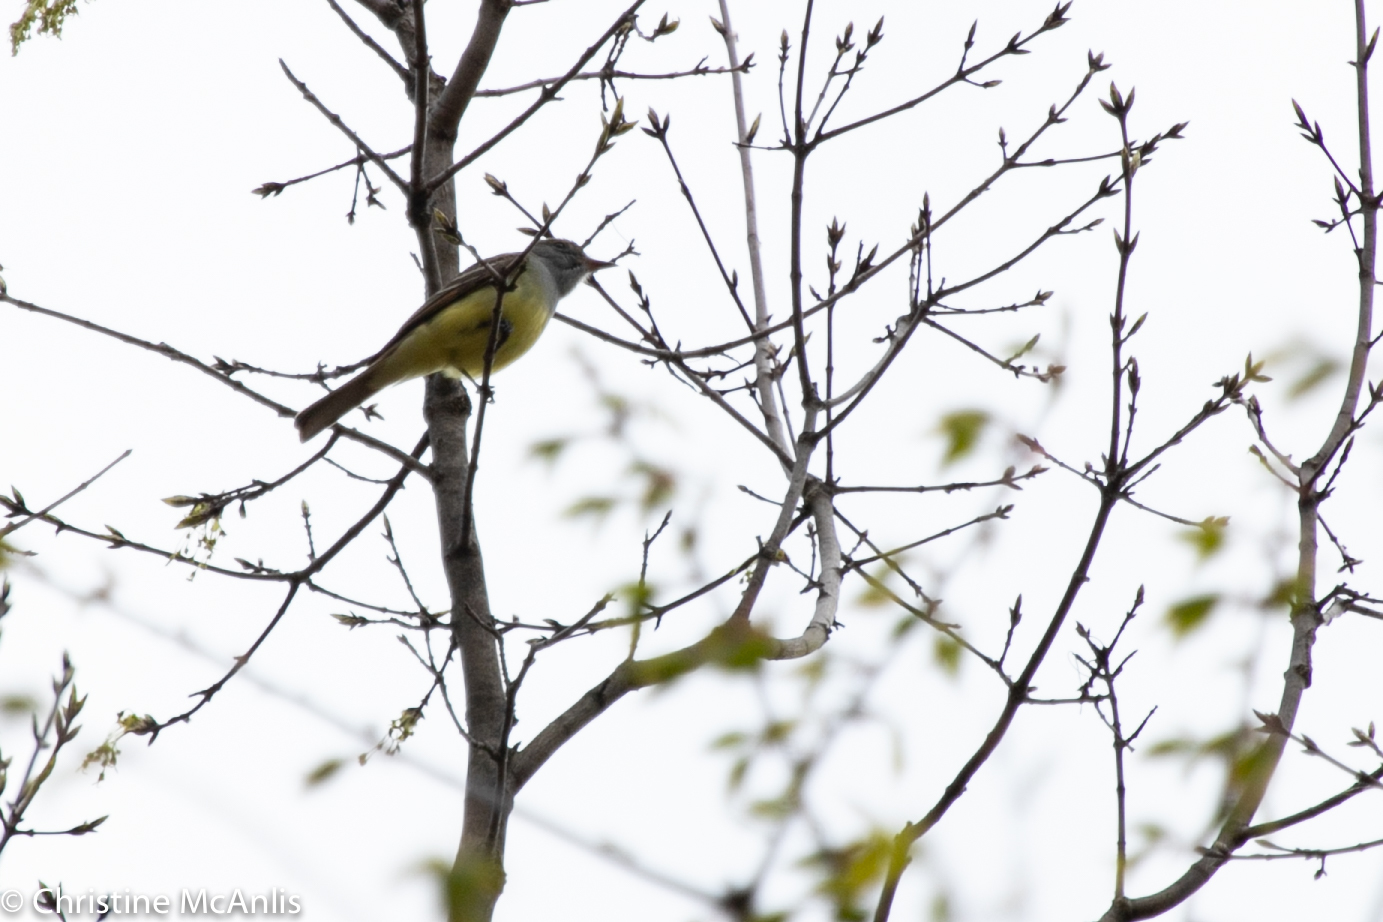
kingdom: Animalia
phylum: Chordata
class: Aves
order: Passeriformes
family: Tyrannidae
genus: Myiarchus
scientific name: Myiarchus crinitus
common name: Great crested flycatcher
